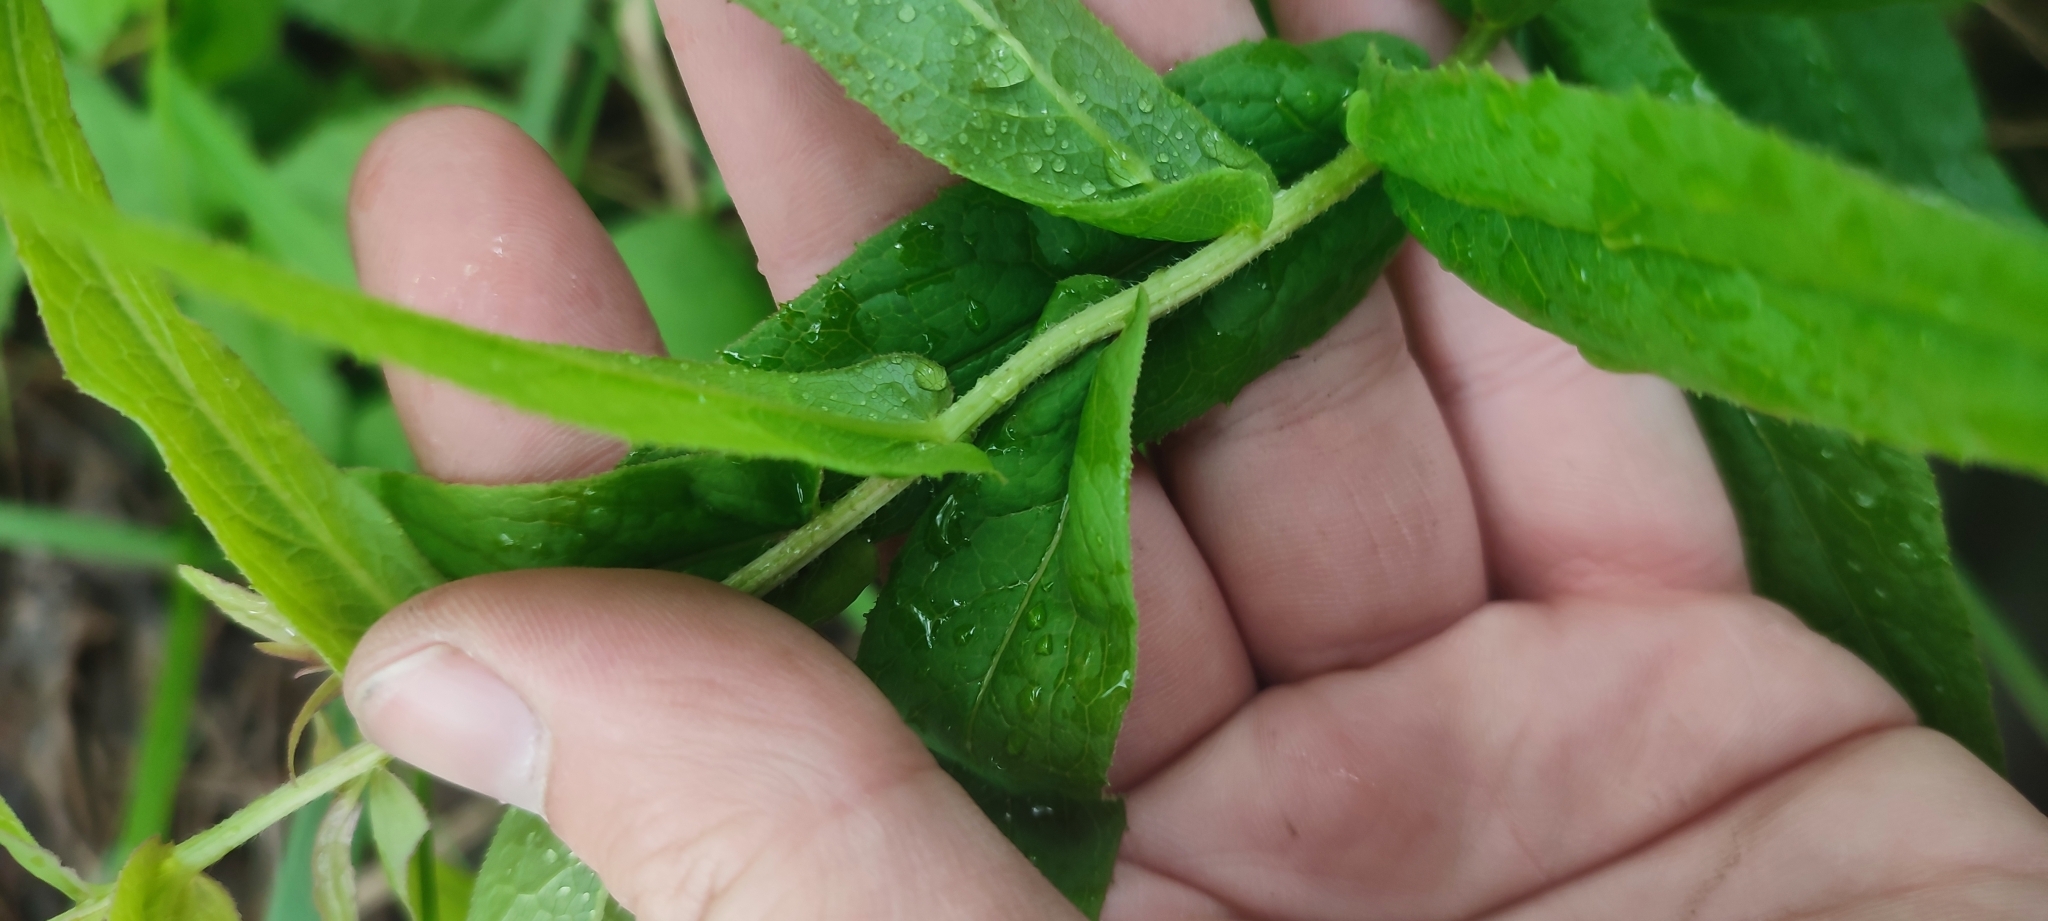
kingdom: Plantae
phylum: Tracheophyta
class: Magnoliopsida
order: Asterales
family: Asteraceae
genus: Pentanema
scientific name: Pentanema salicinum
